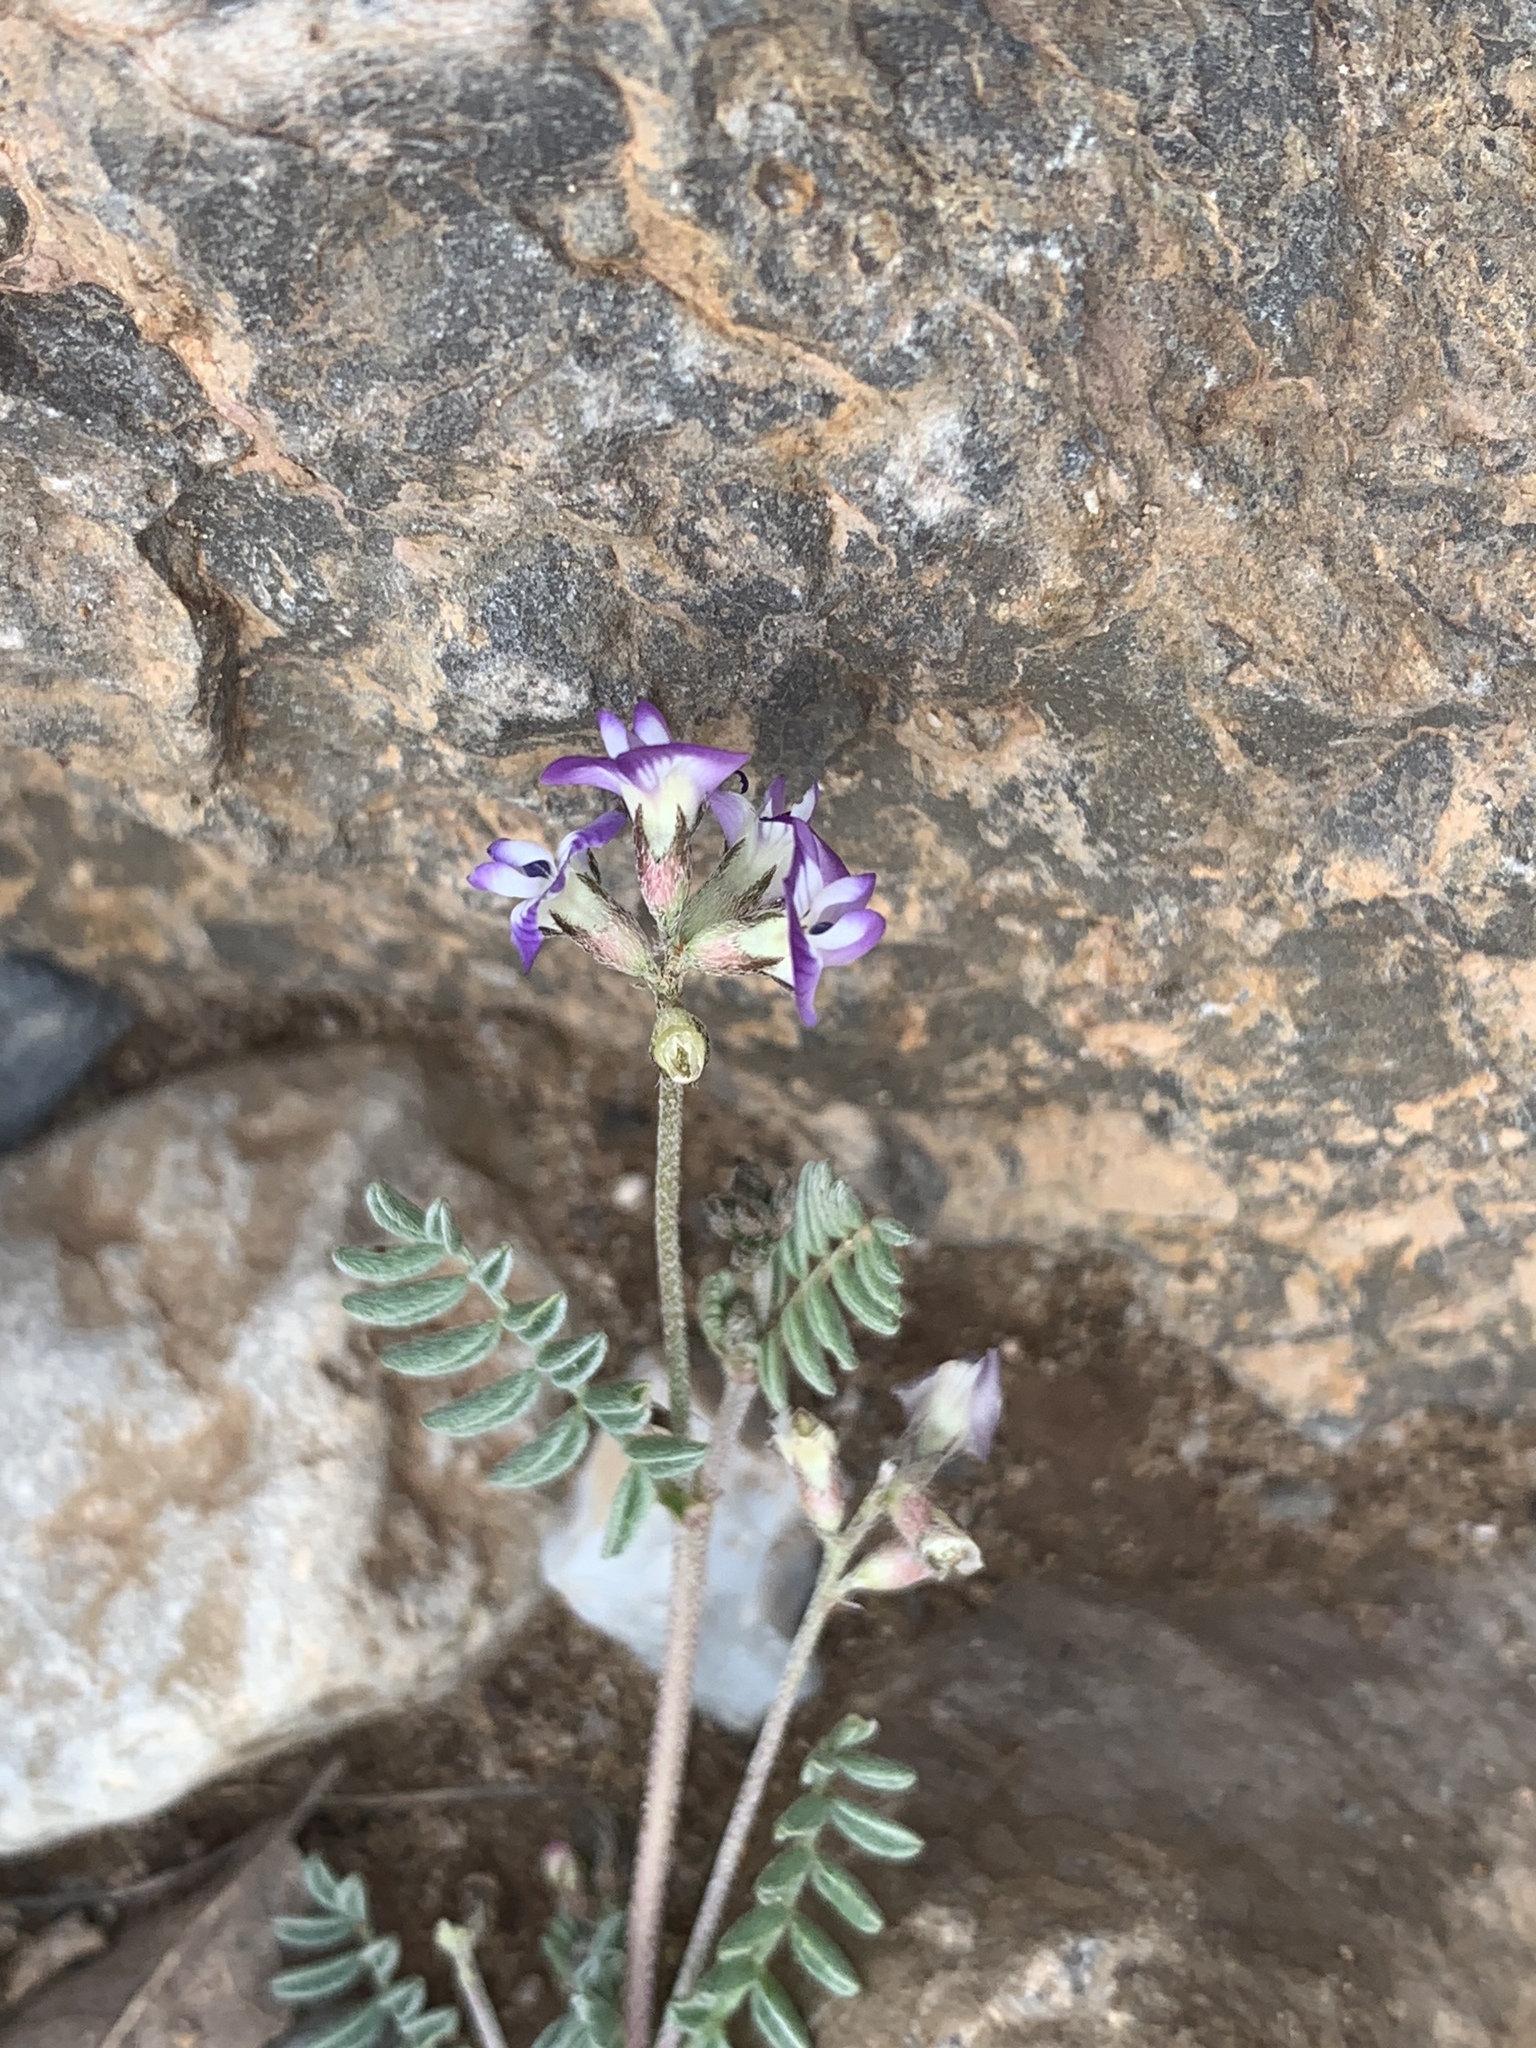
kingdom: Plantae
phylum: Tracheophyta
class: Magnoliopsida
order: Fabales
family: Fabaceae
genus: Astragalus
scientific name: Astragalus emoryanus
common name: Emory's milk-vetch
